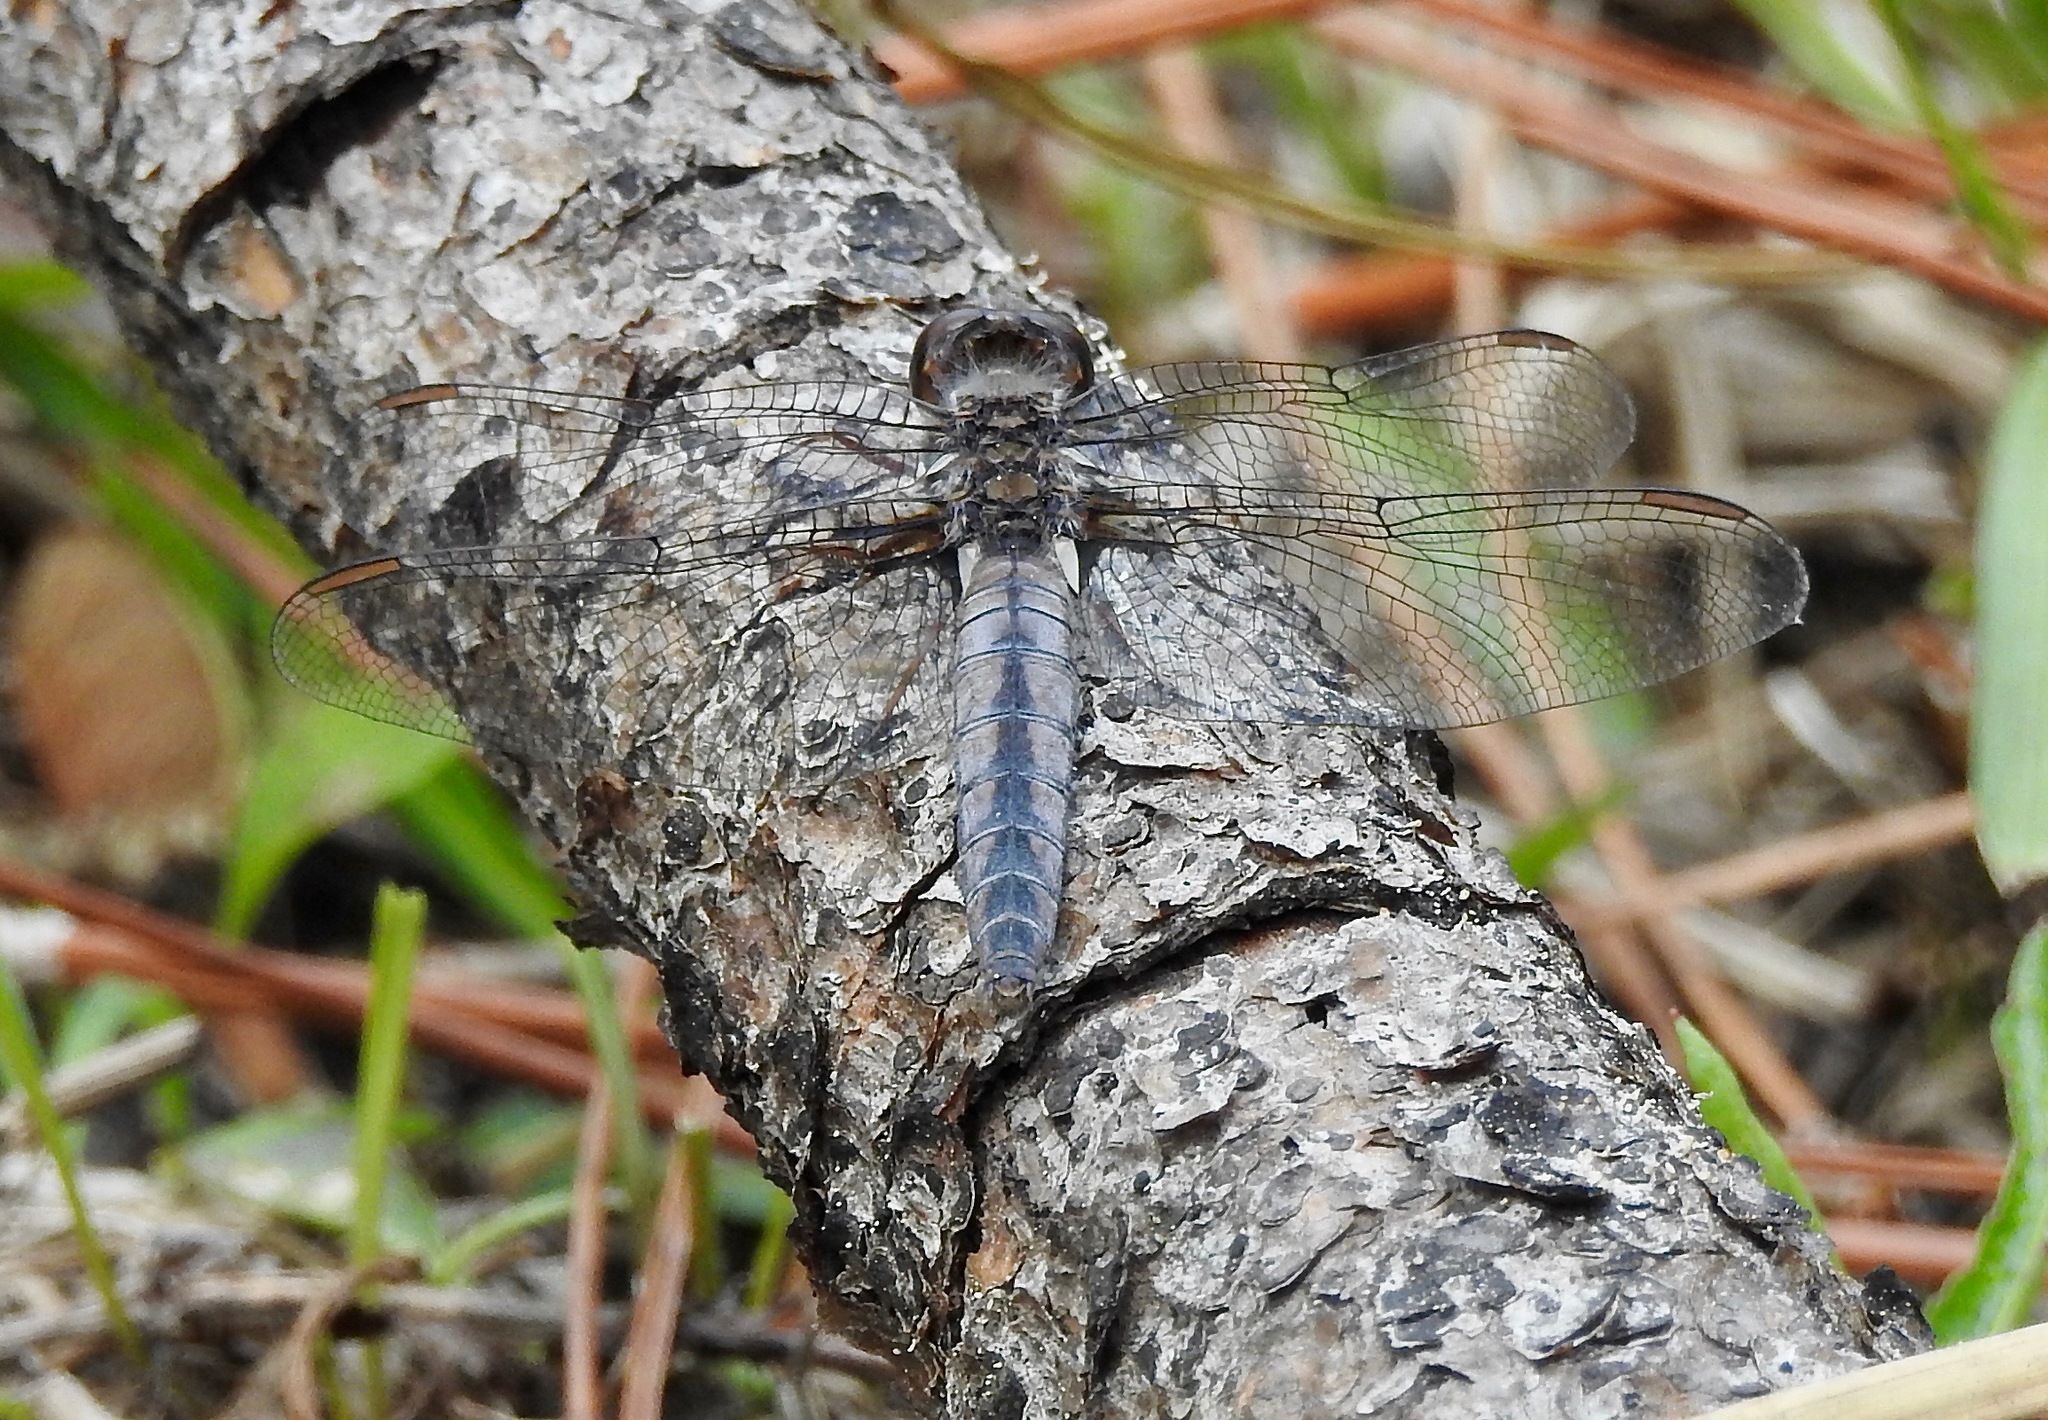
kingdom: Animalia
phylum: Arthropoda
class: Insecta
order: Odonata
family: Libellulidae
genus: Ladona
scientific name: Ladona deplanata
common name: Blue corporal
